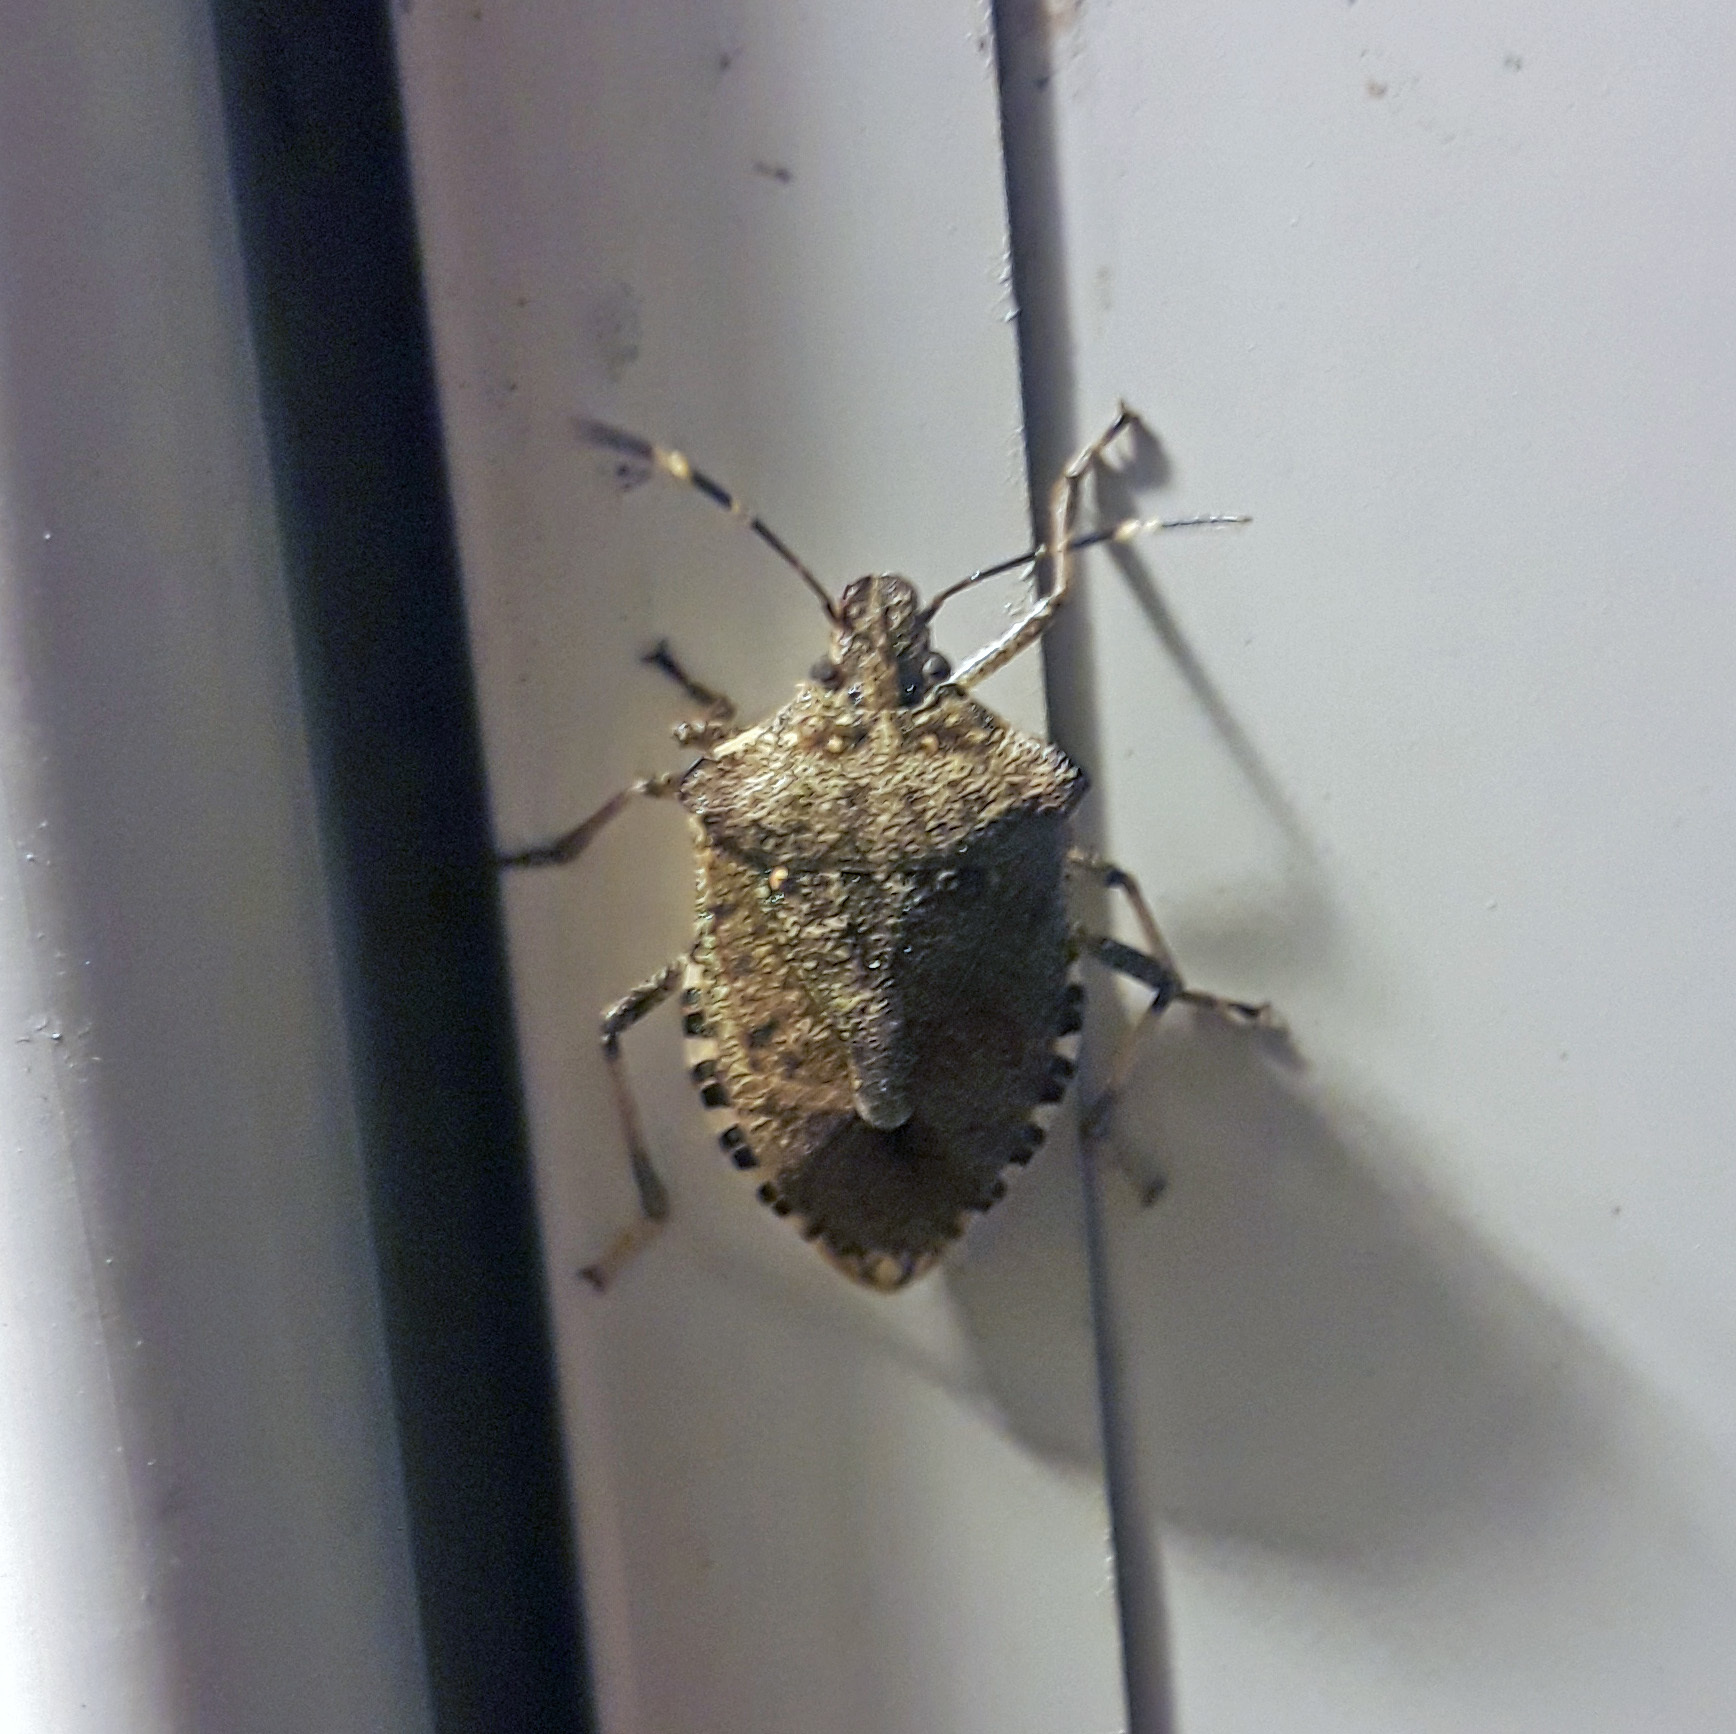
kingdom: Animalia
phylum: Arthropoda
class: Insecta
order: Hemiptera
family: Pentatomidae
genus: Halyomorpha
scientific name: Halyomorpha halys
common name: Brown marmorated stink bug
